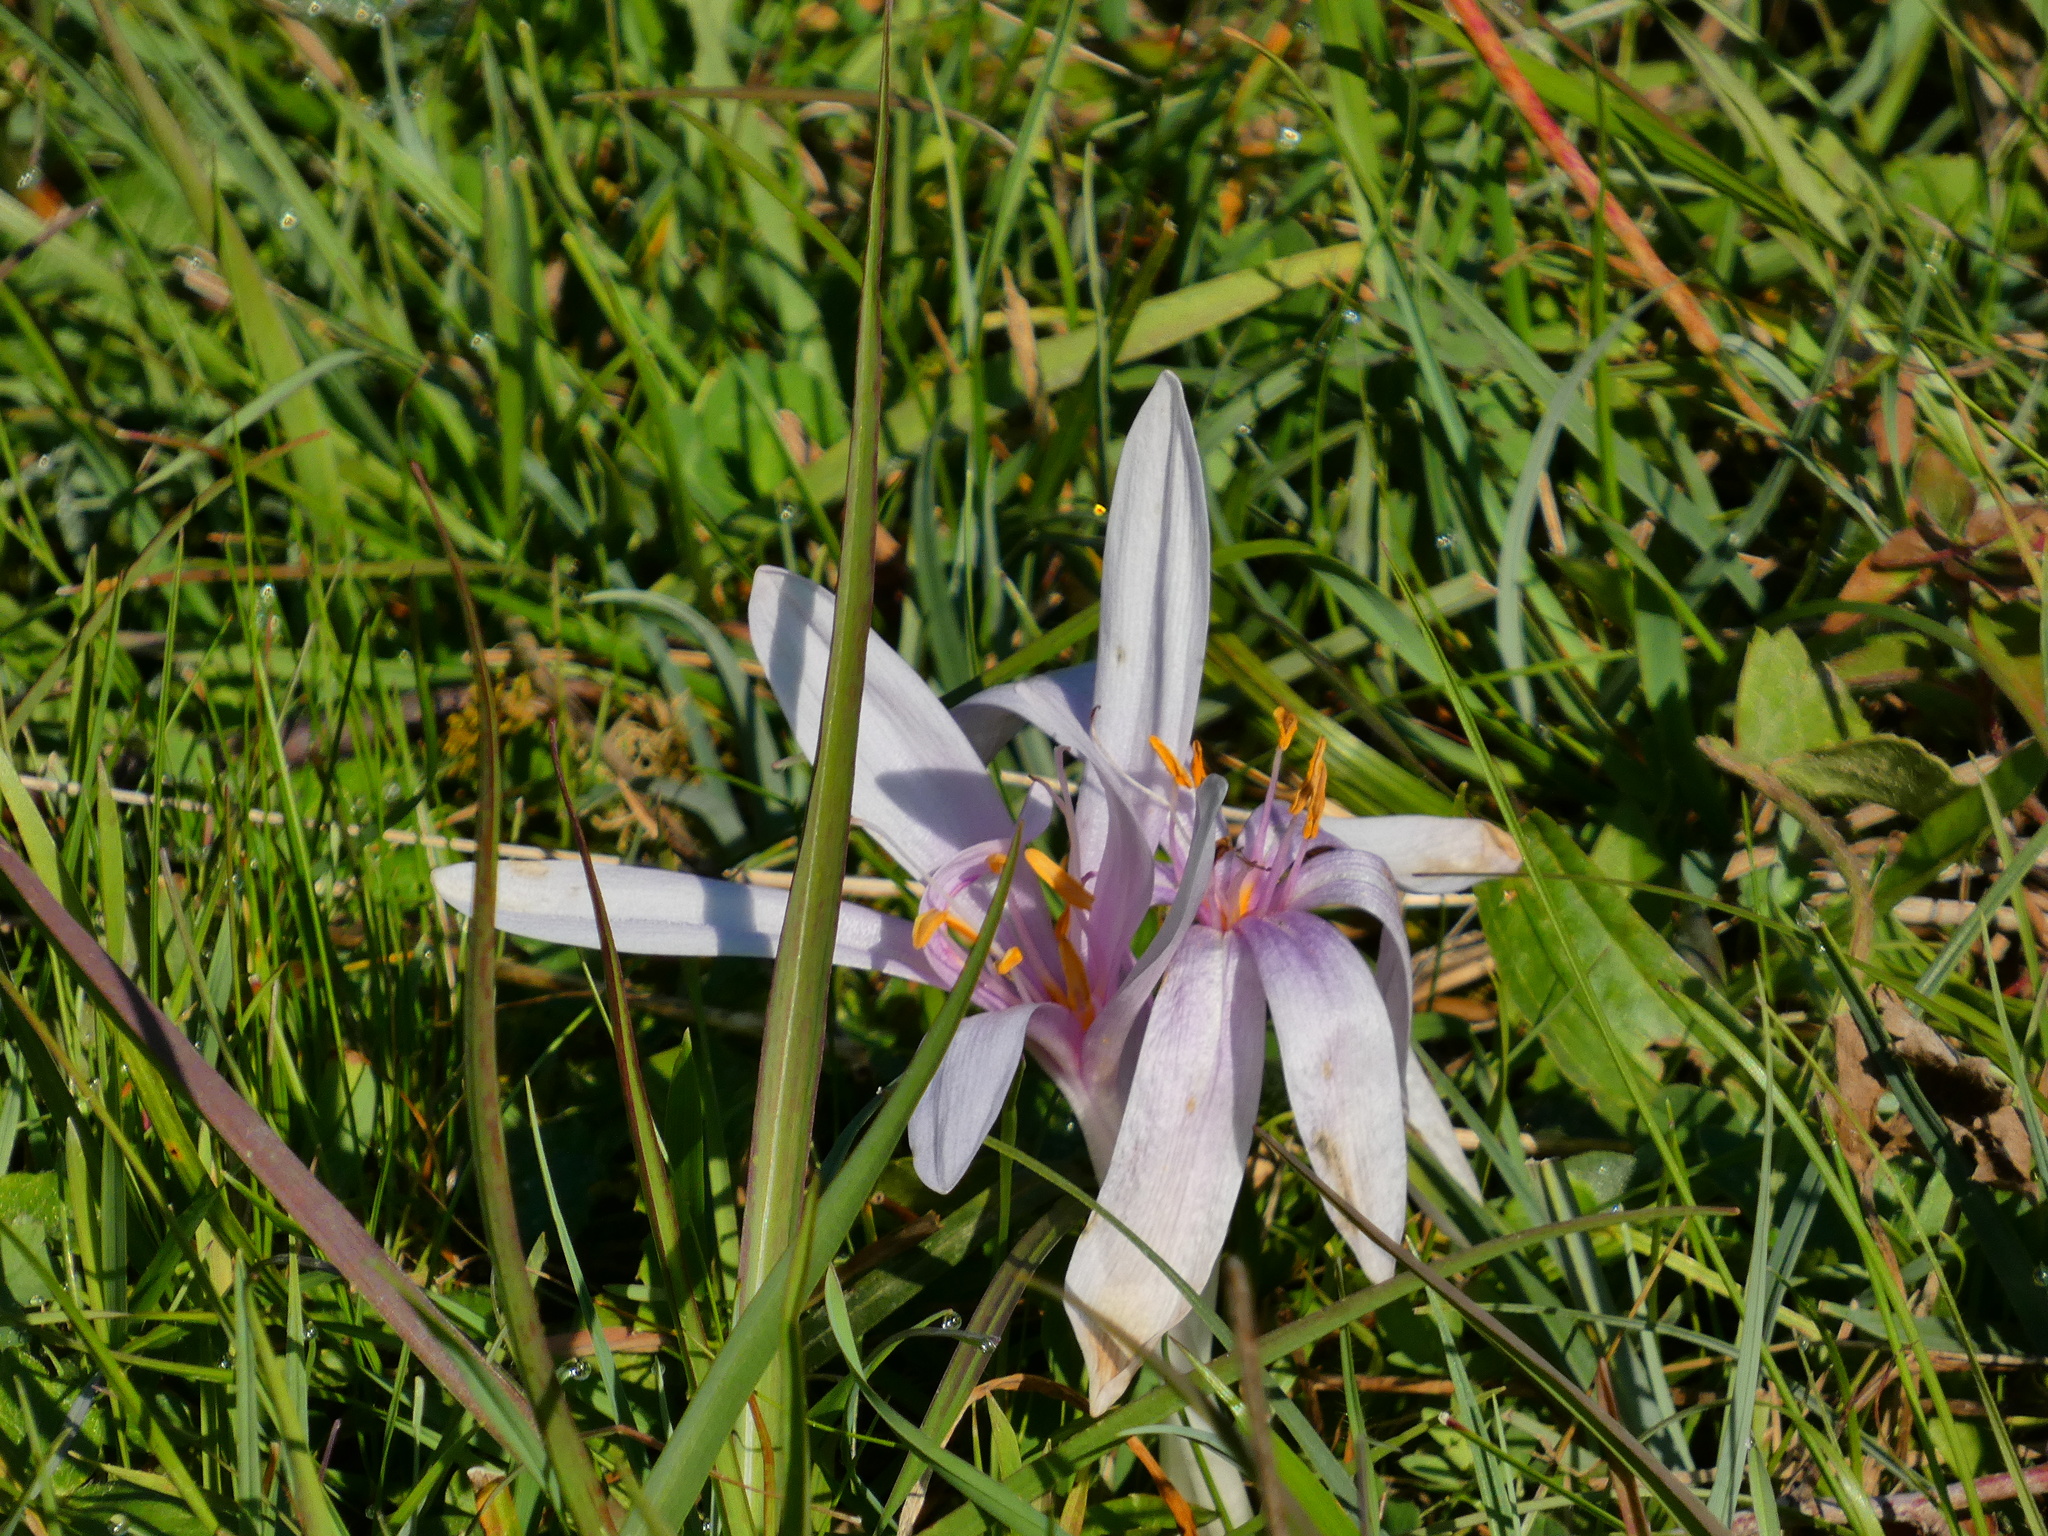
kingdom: Plantae
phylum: Tracheophyta
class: Liliopsida
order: Liliales
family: Colchicaceae
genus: Colchicum
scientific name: Colchicum autumnale
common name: Autumn crocus
